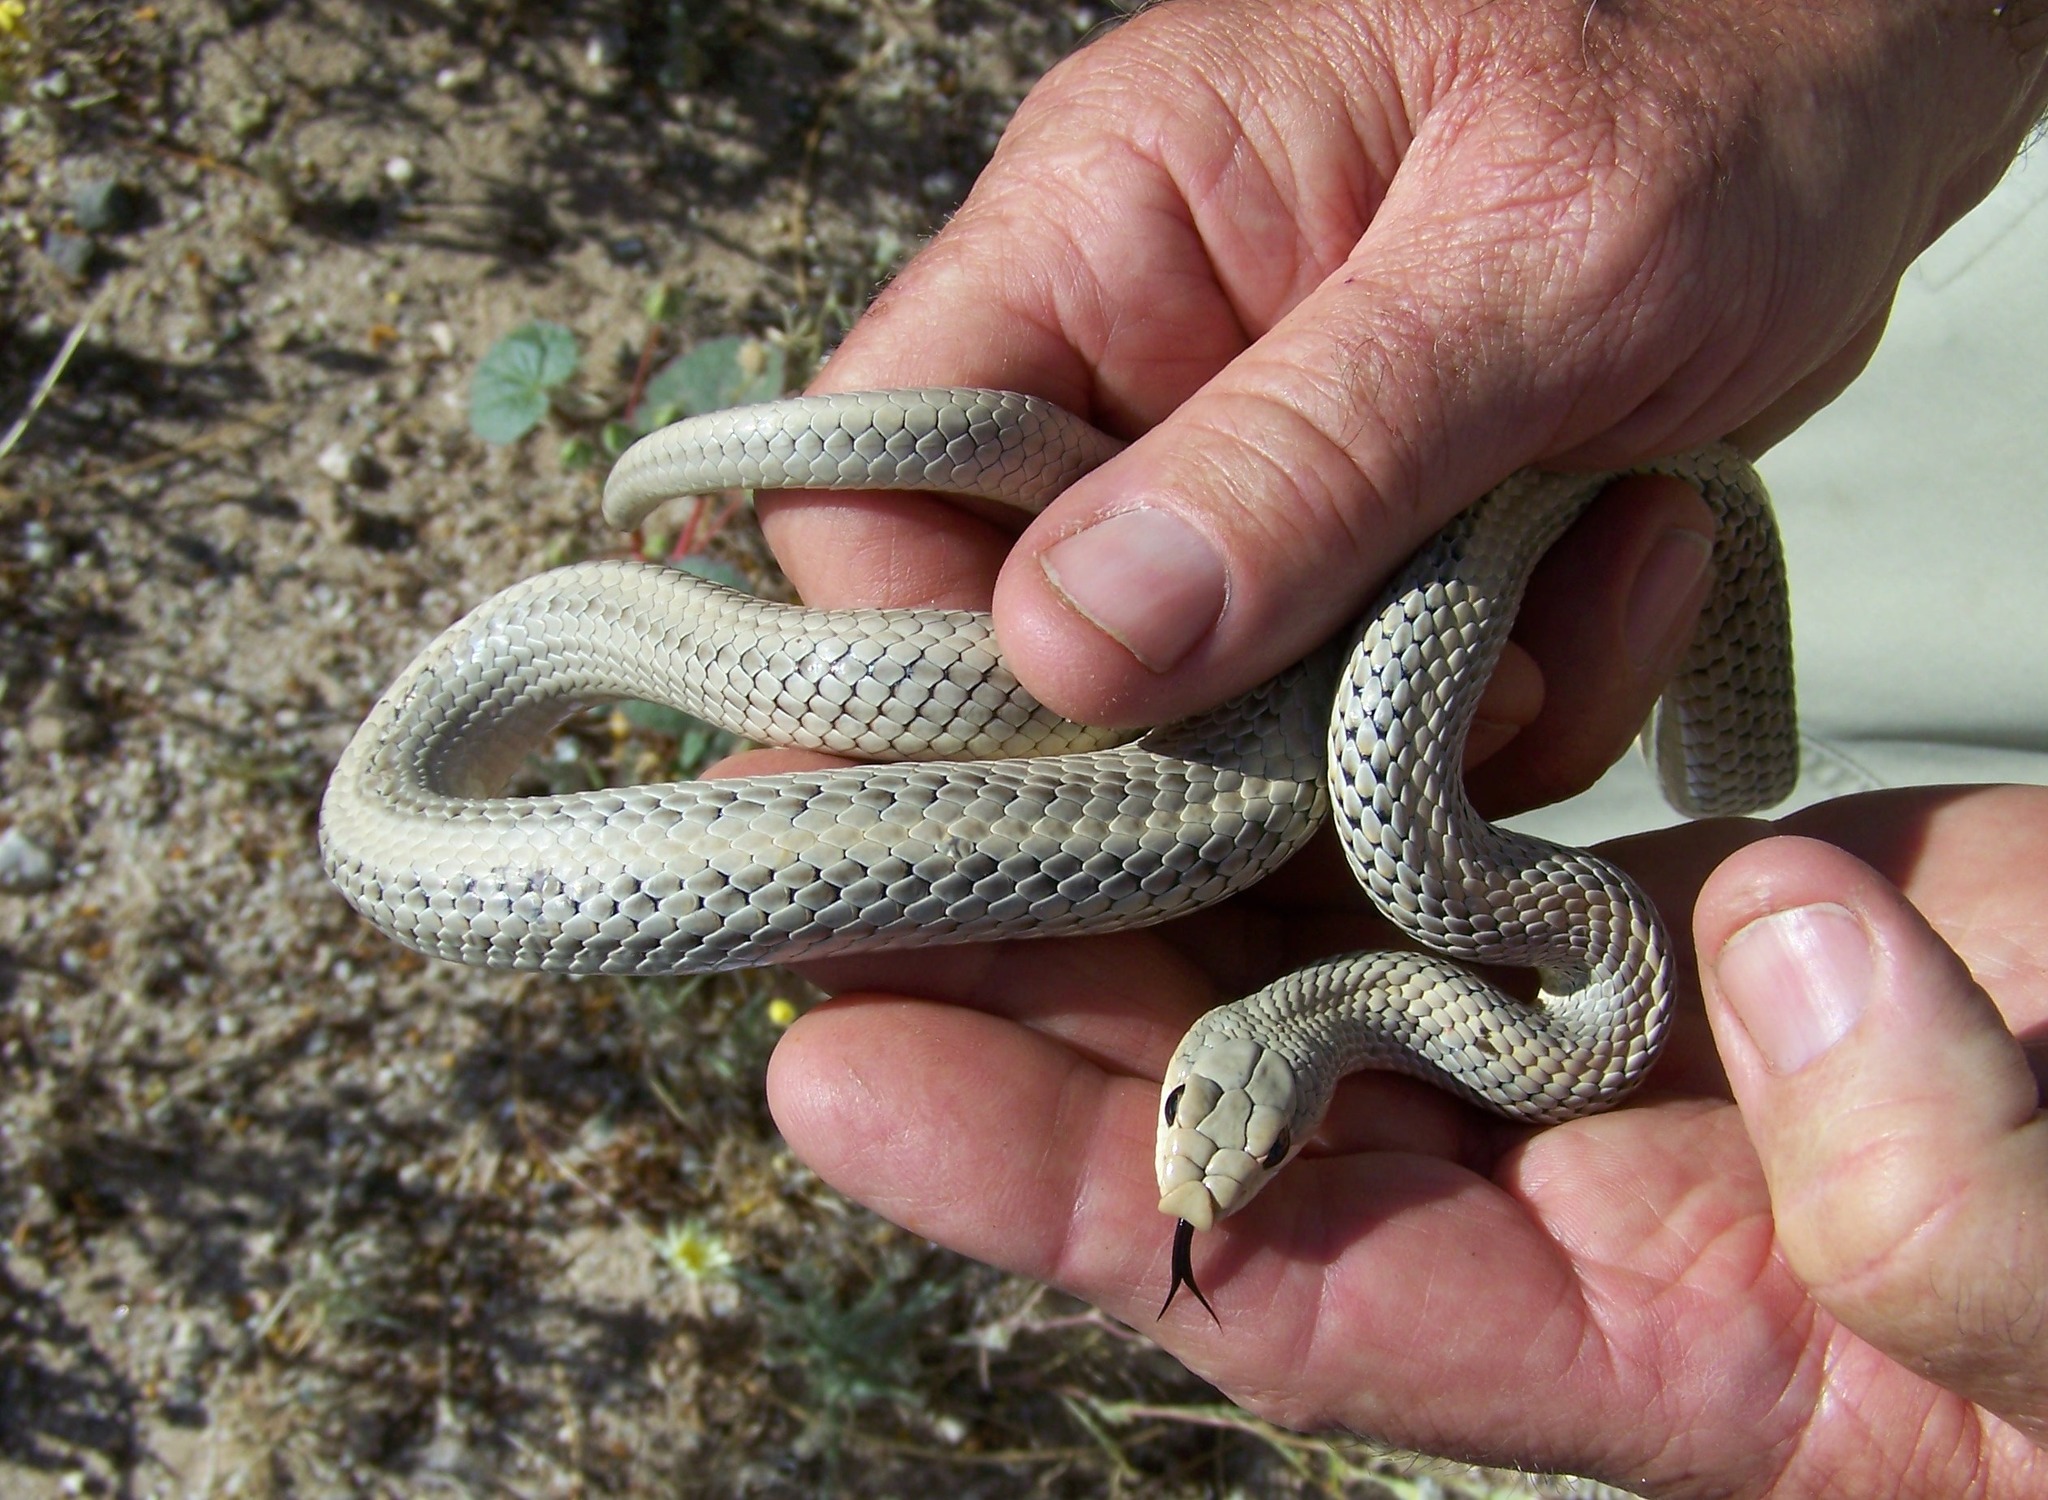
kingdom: Animalia
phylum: Chordata
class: Squamata
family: Colubridae
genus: Salvadora
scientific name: Salvadora hexalepis
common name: Western patchnose snake
